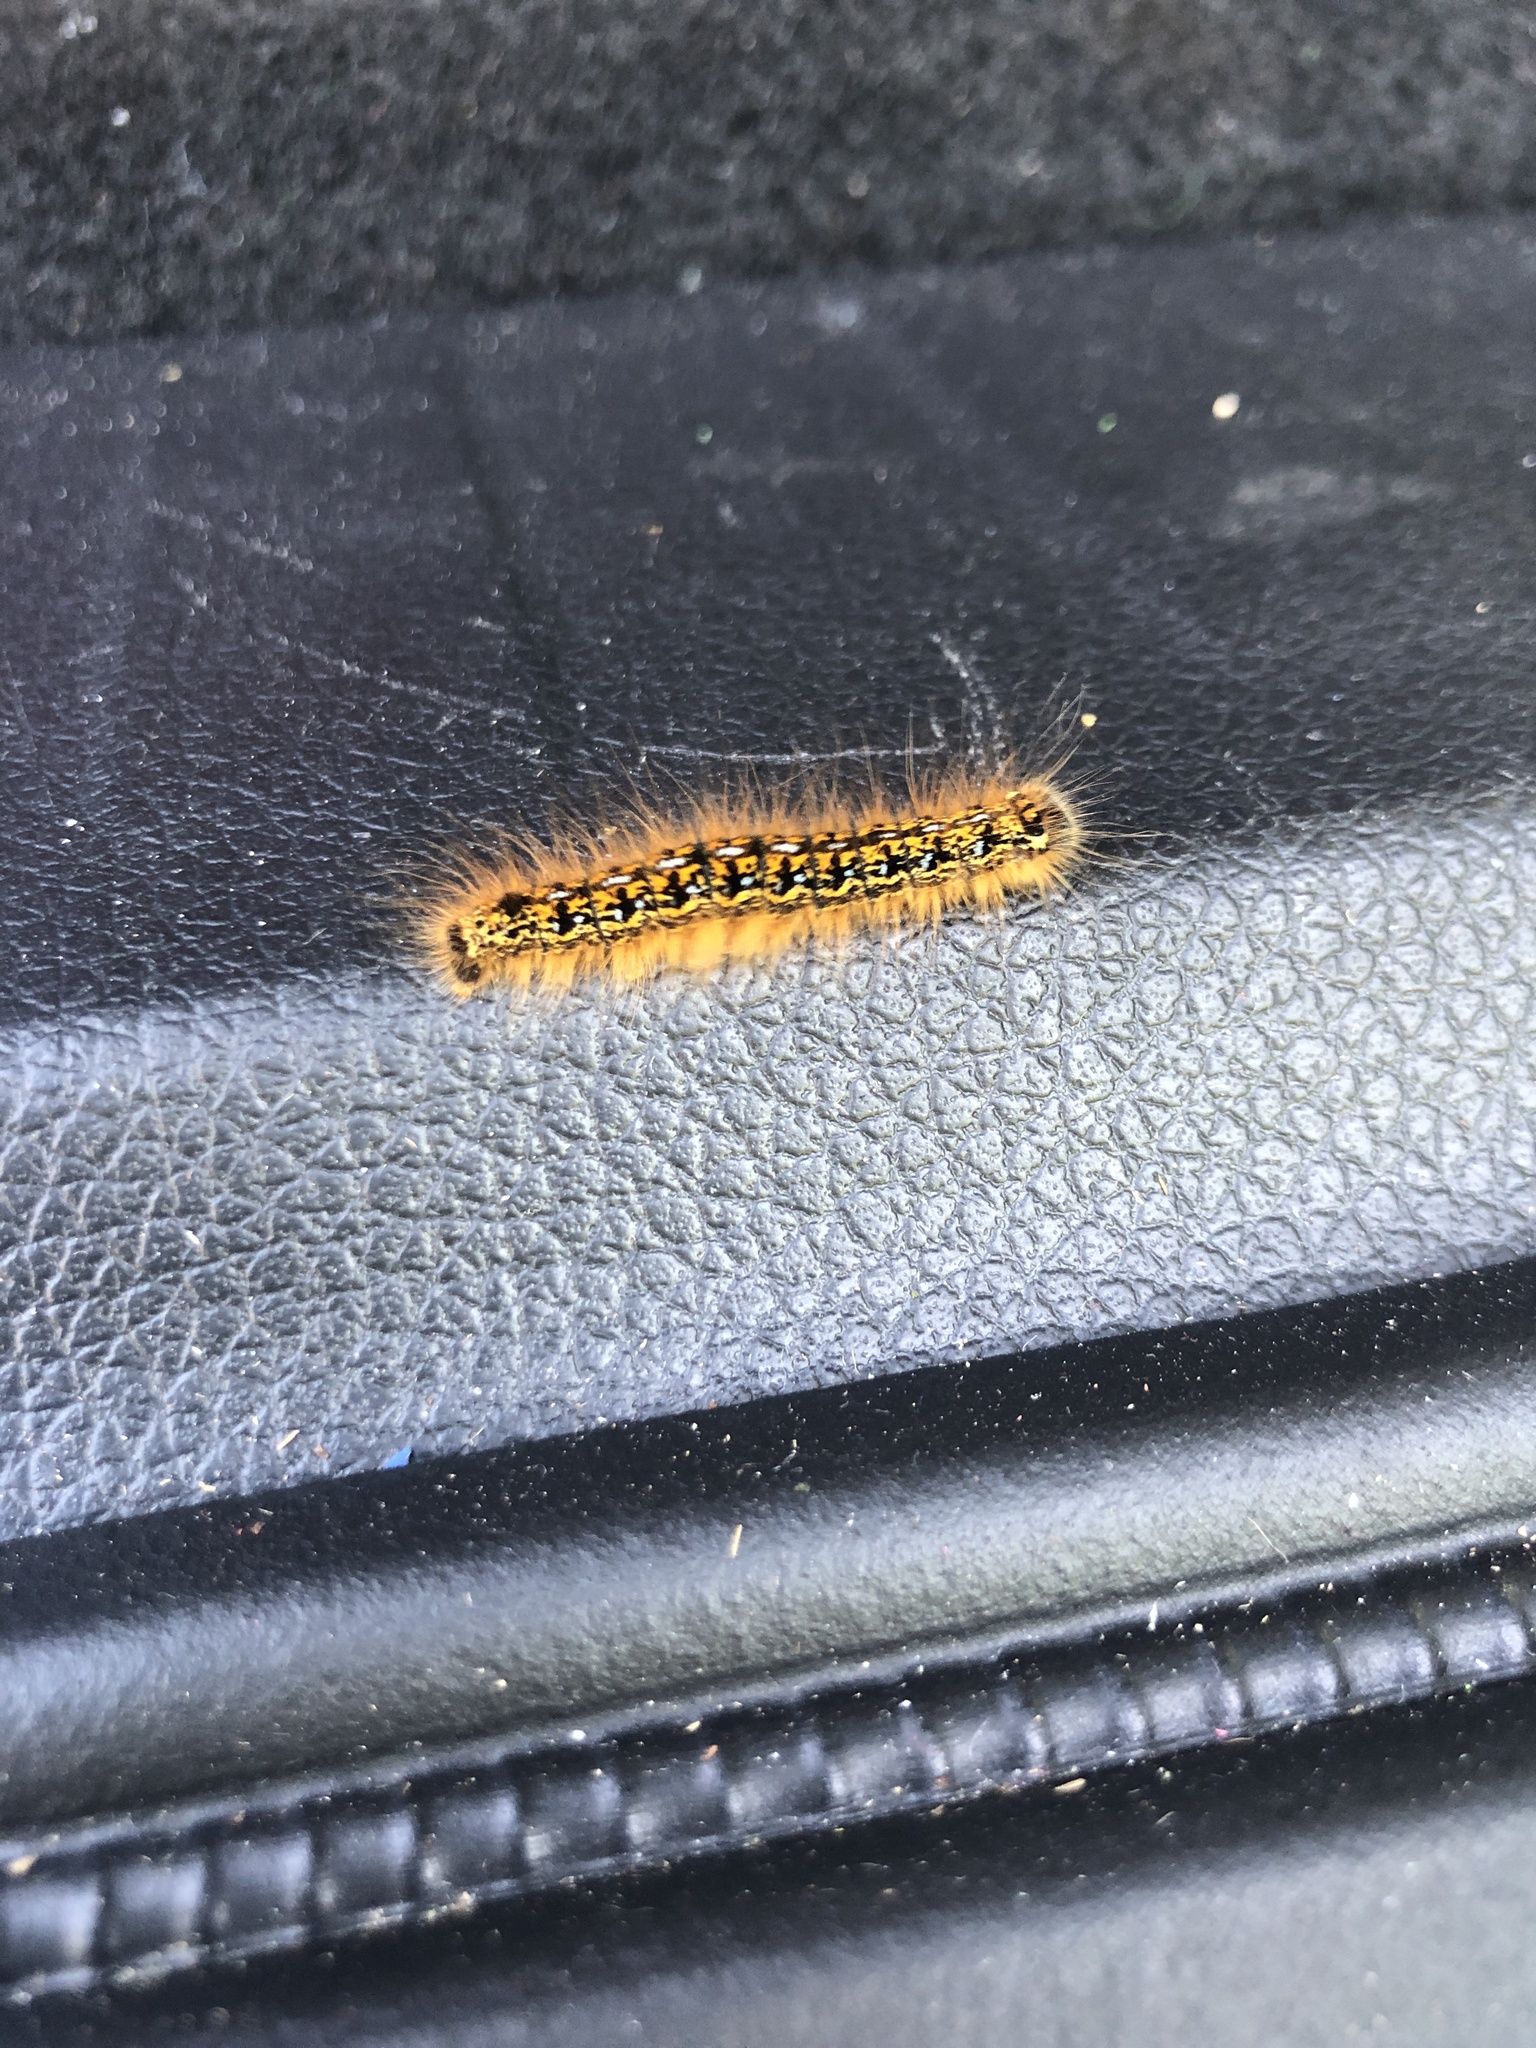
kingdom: Animalia
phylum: Arthropoda
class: Insecta
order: Lepidoptera
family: Lasiocampidae
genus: Malacosoma
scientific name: Malacosoma californica
